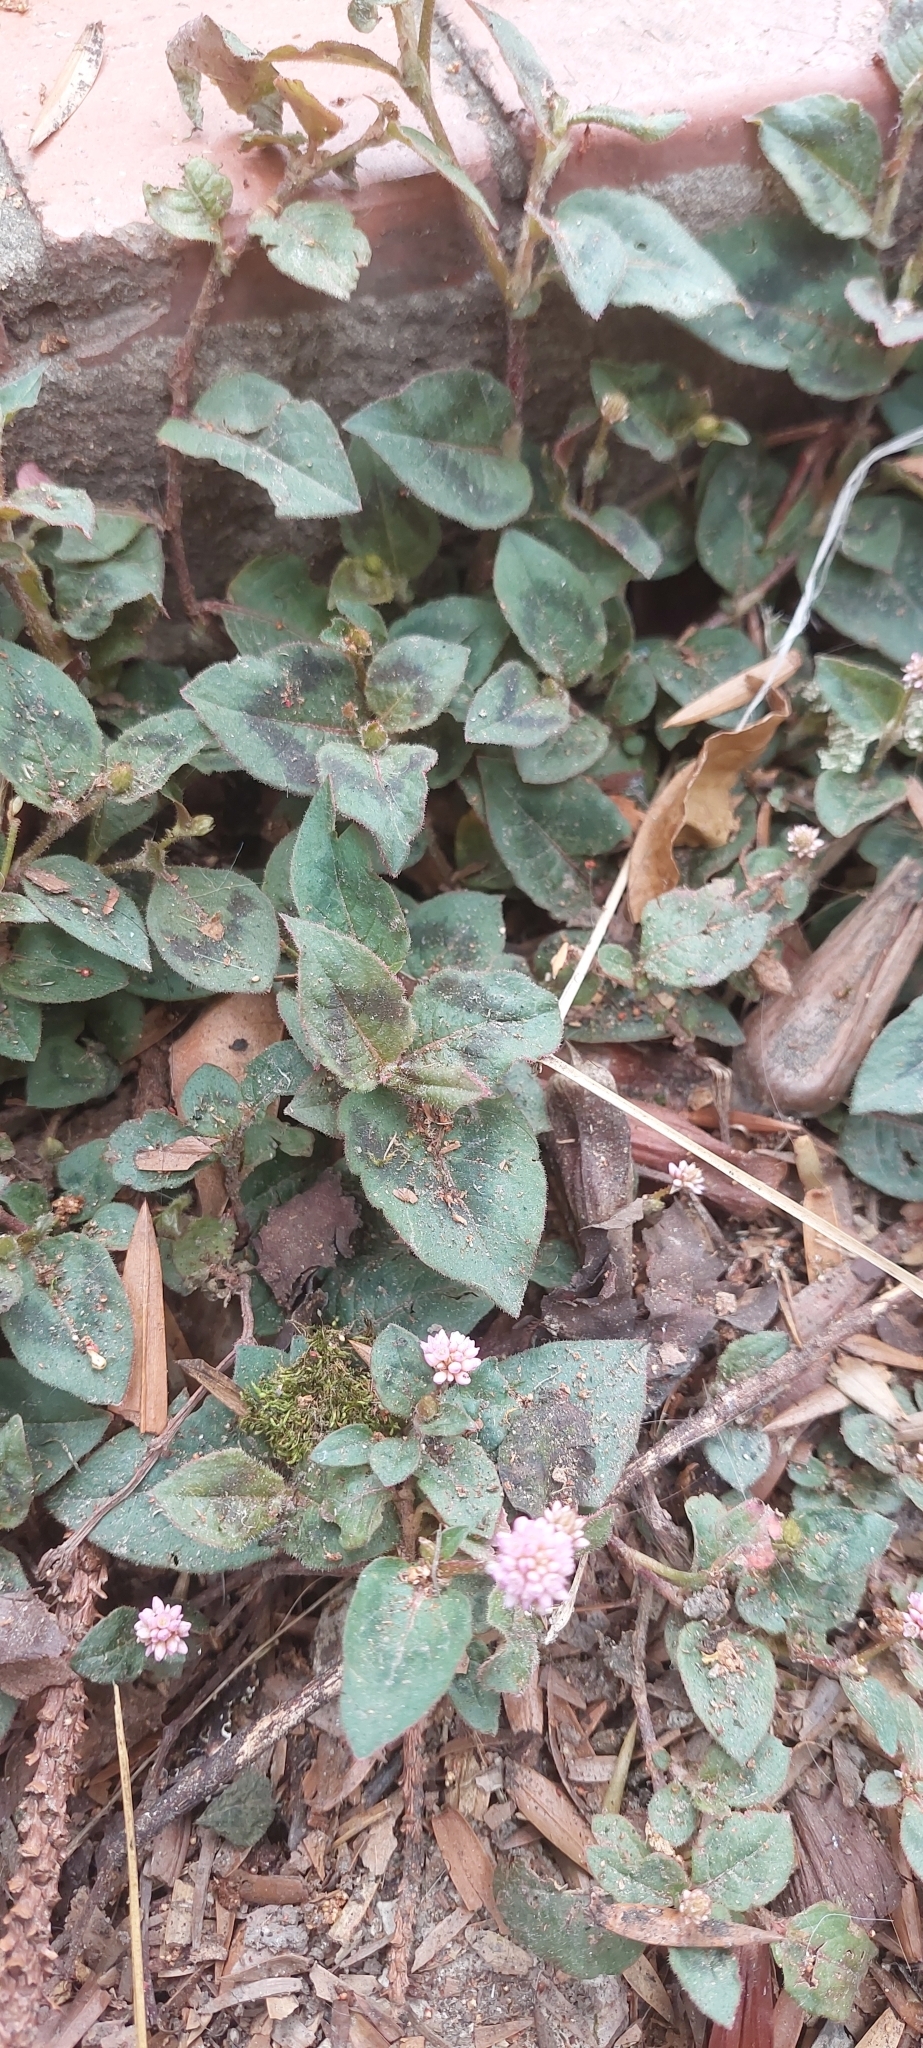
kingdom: Plantae
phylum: Tracheophyta
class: Magnoliopsida
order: Caryophyllales
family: Polygonaceae
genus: Persicaria
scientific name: Persicaria capitata
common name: Pinkhead smartweed
